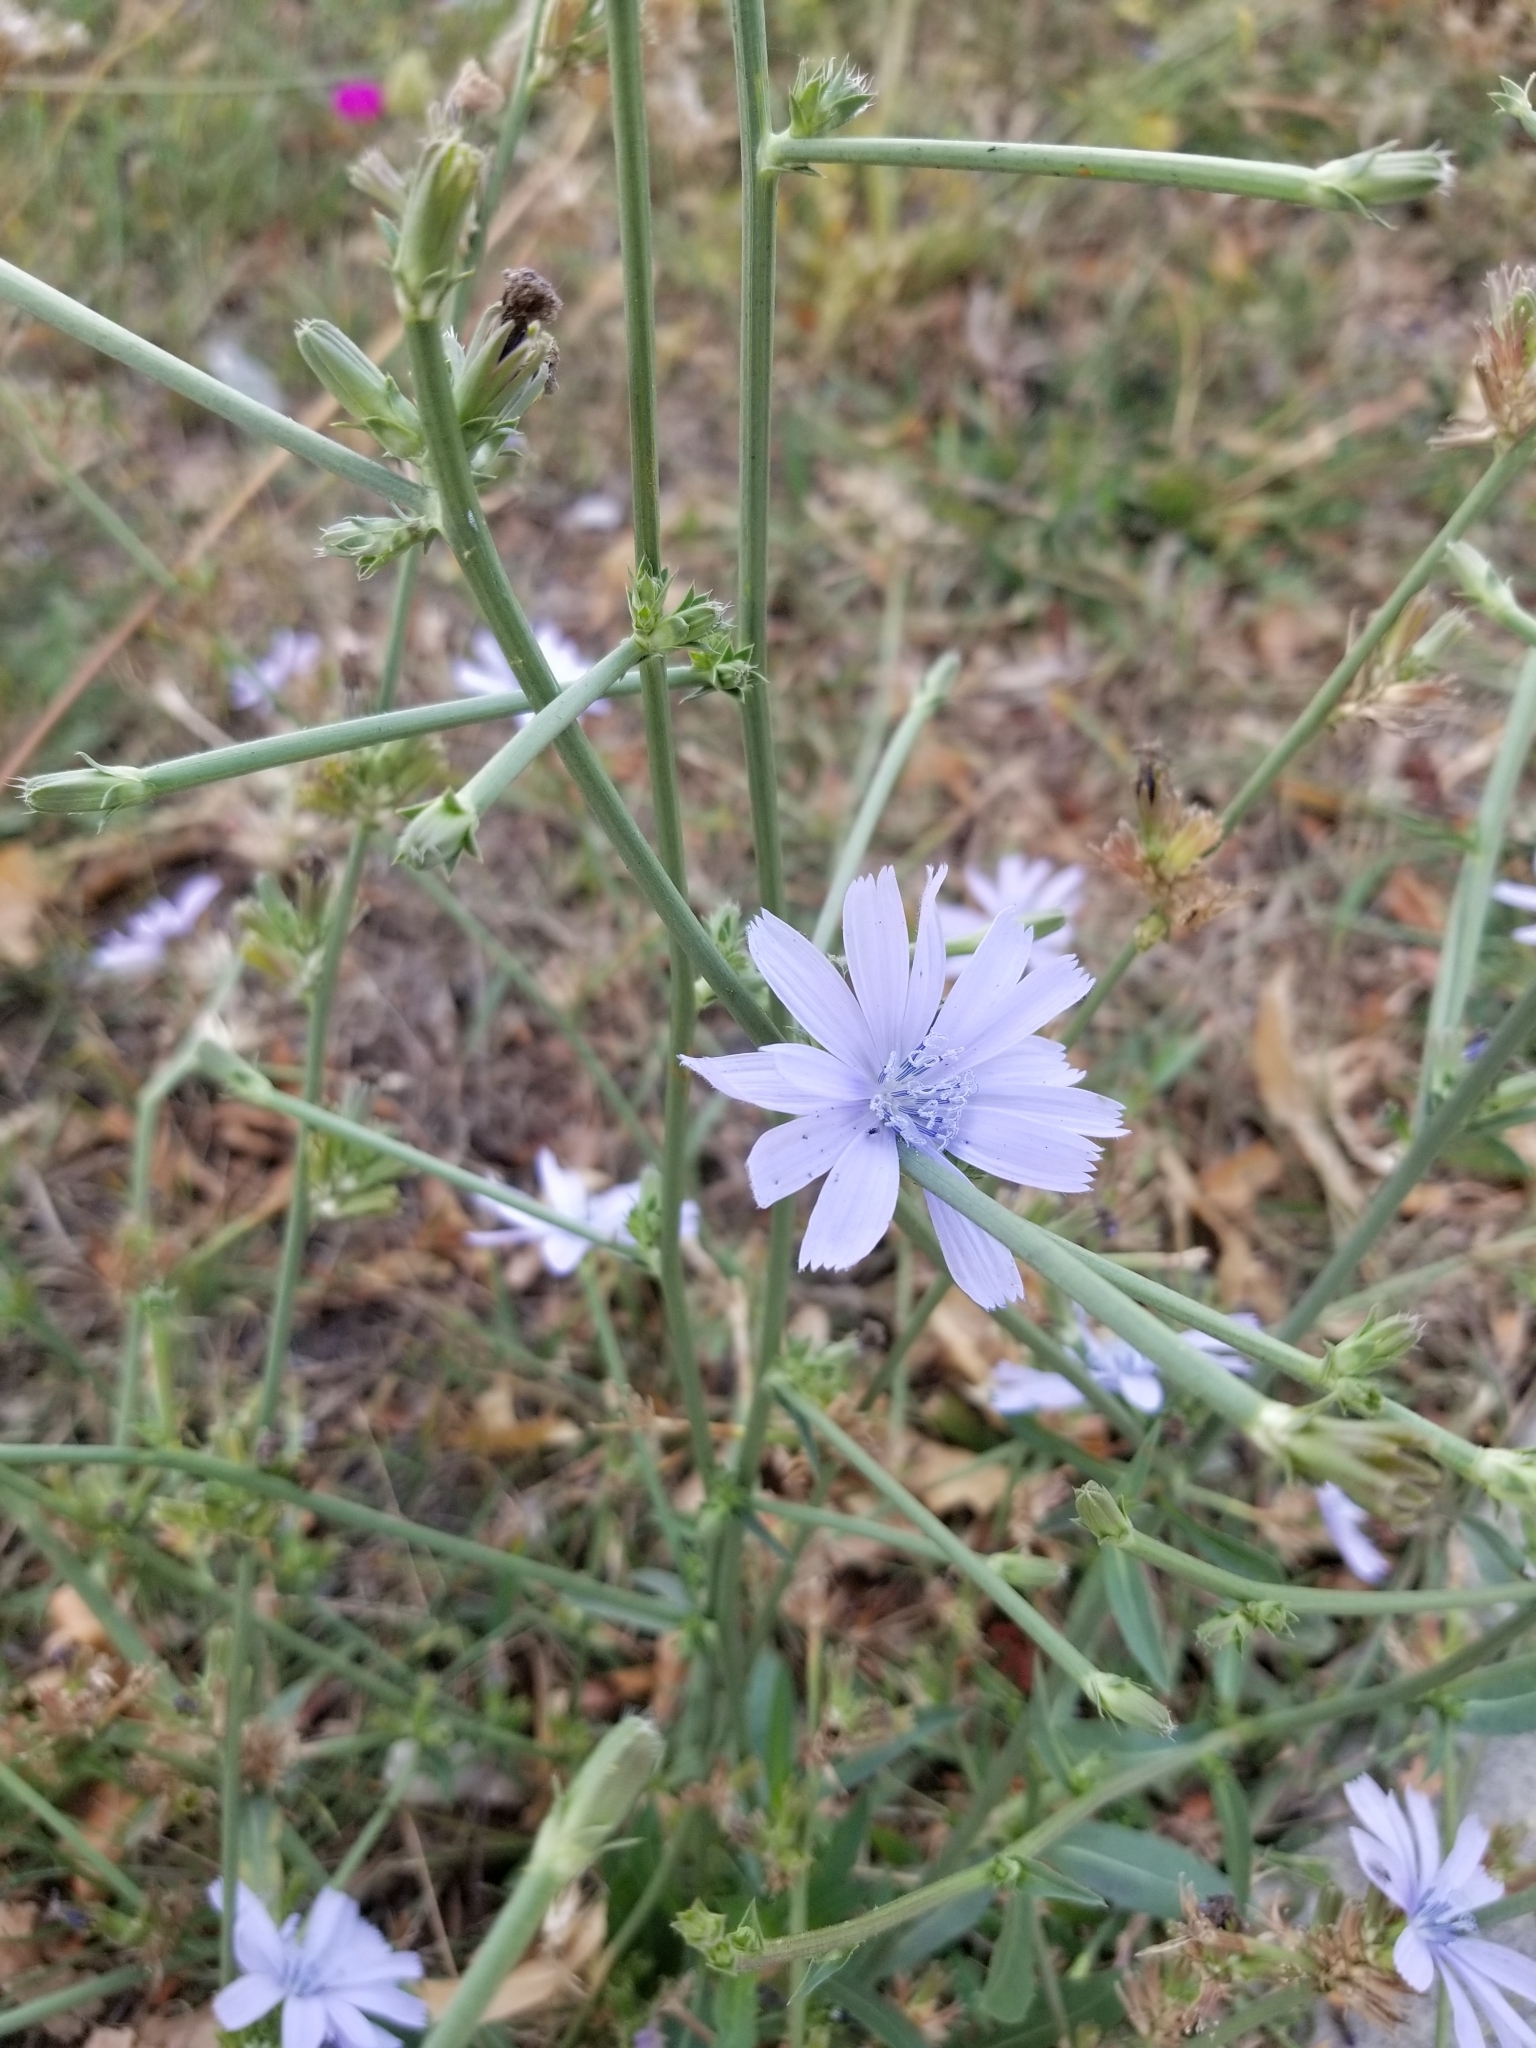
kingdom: Plantae
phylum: Tracheophyta
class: Magnoliopsida
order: Asterales
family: Asteraceae
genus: Cichorium
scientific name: Cichorium intybus
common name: Chicory
